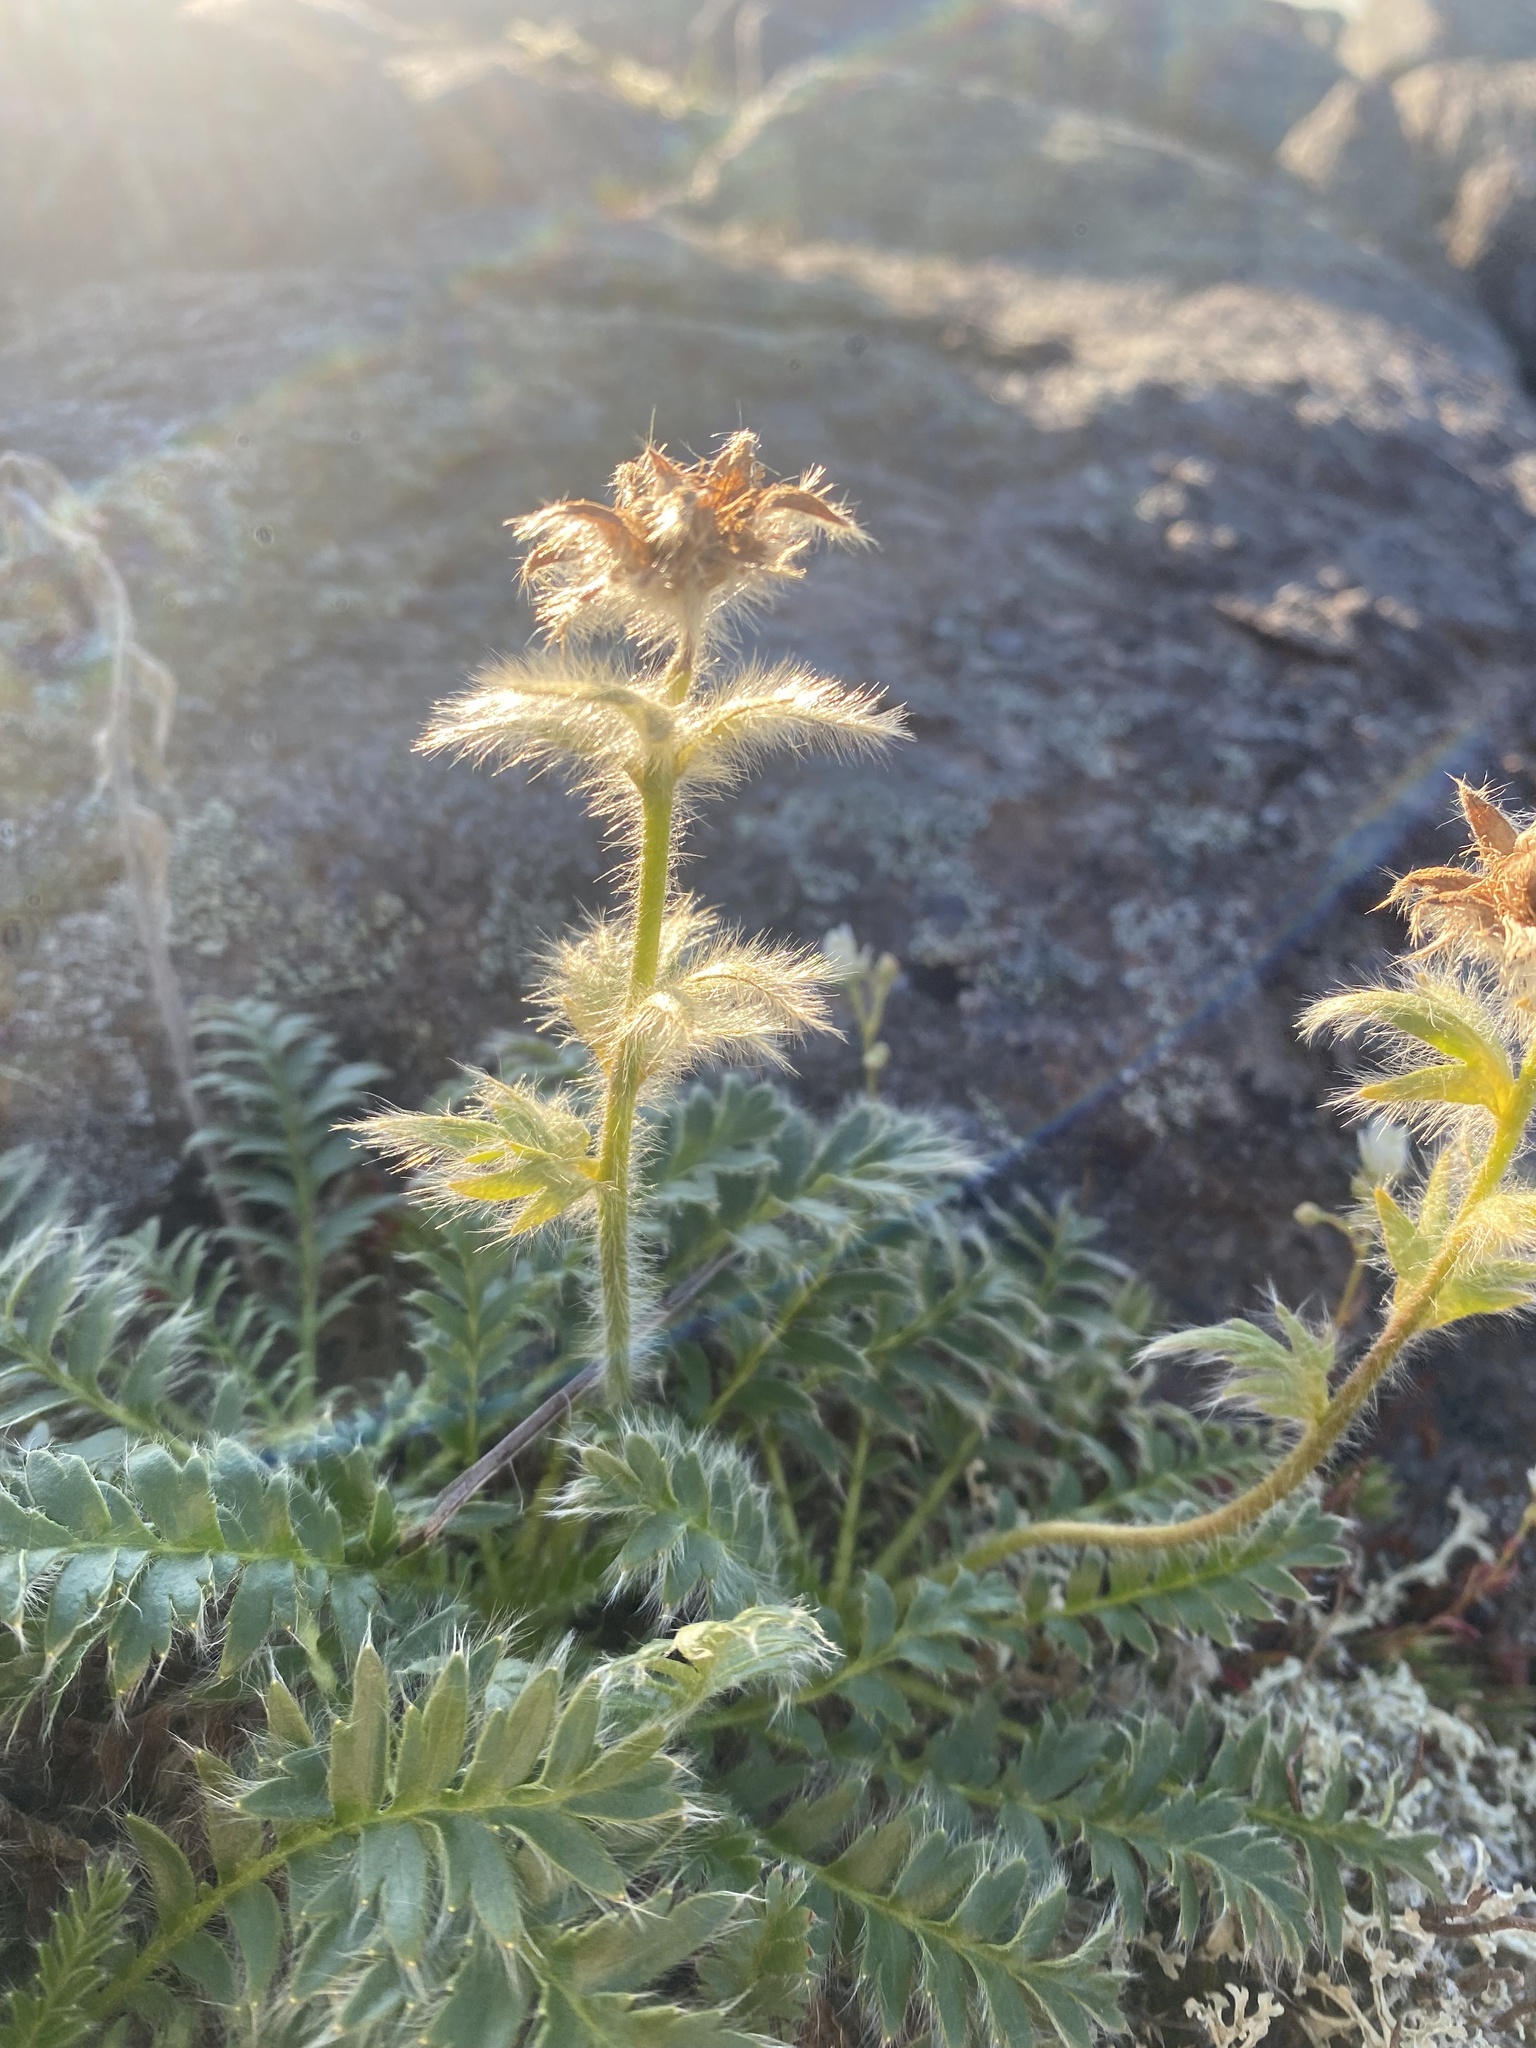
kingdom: Plantae
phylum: Tracheophyta
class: Magnoliopsida
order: Rosales
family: Rosaceae
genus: Geum
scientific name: Geum glaciale
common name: Glacier avens
